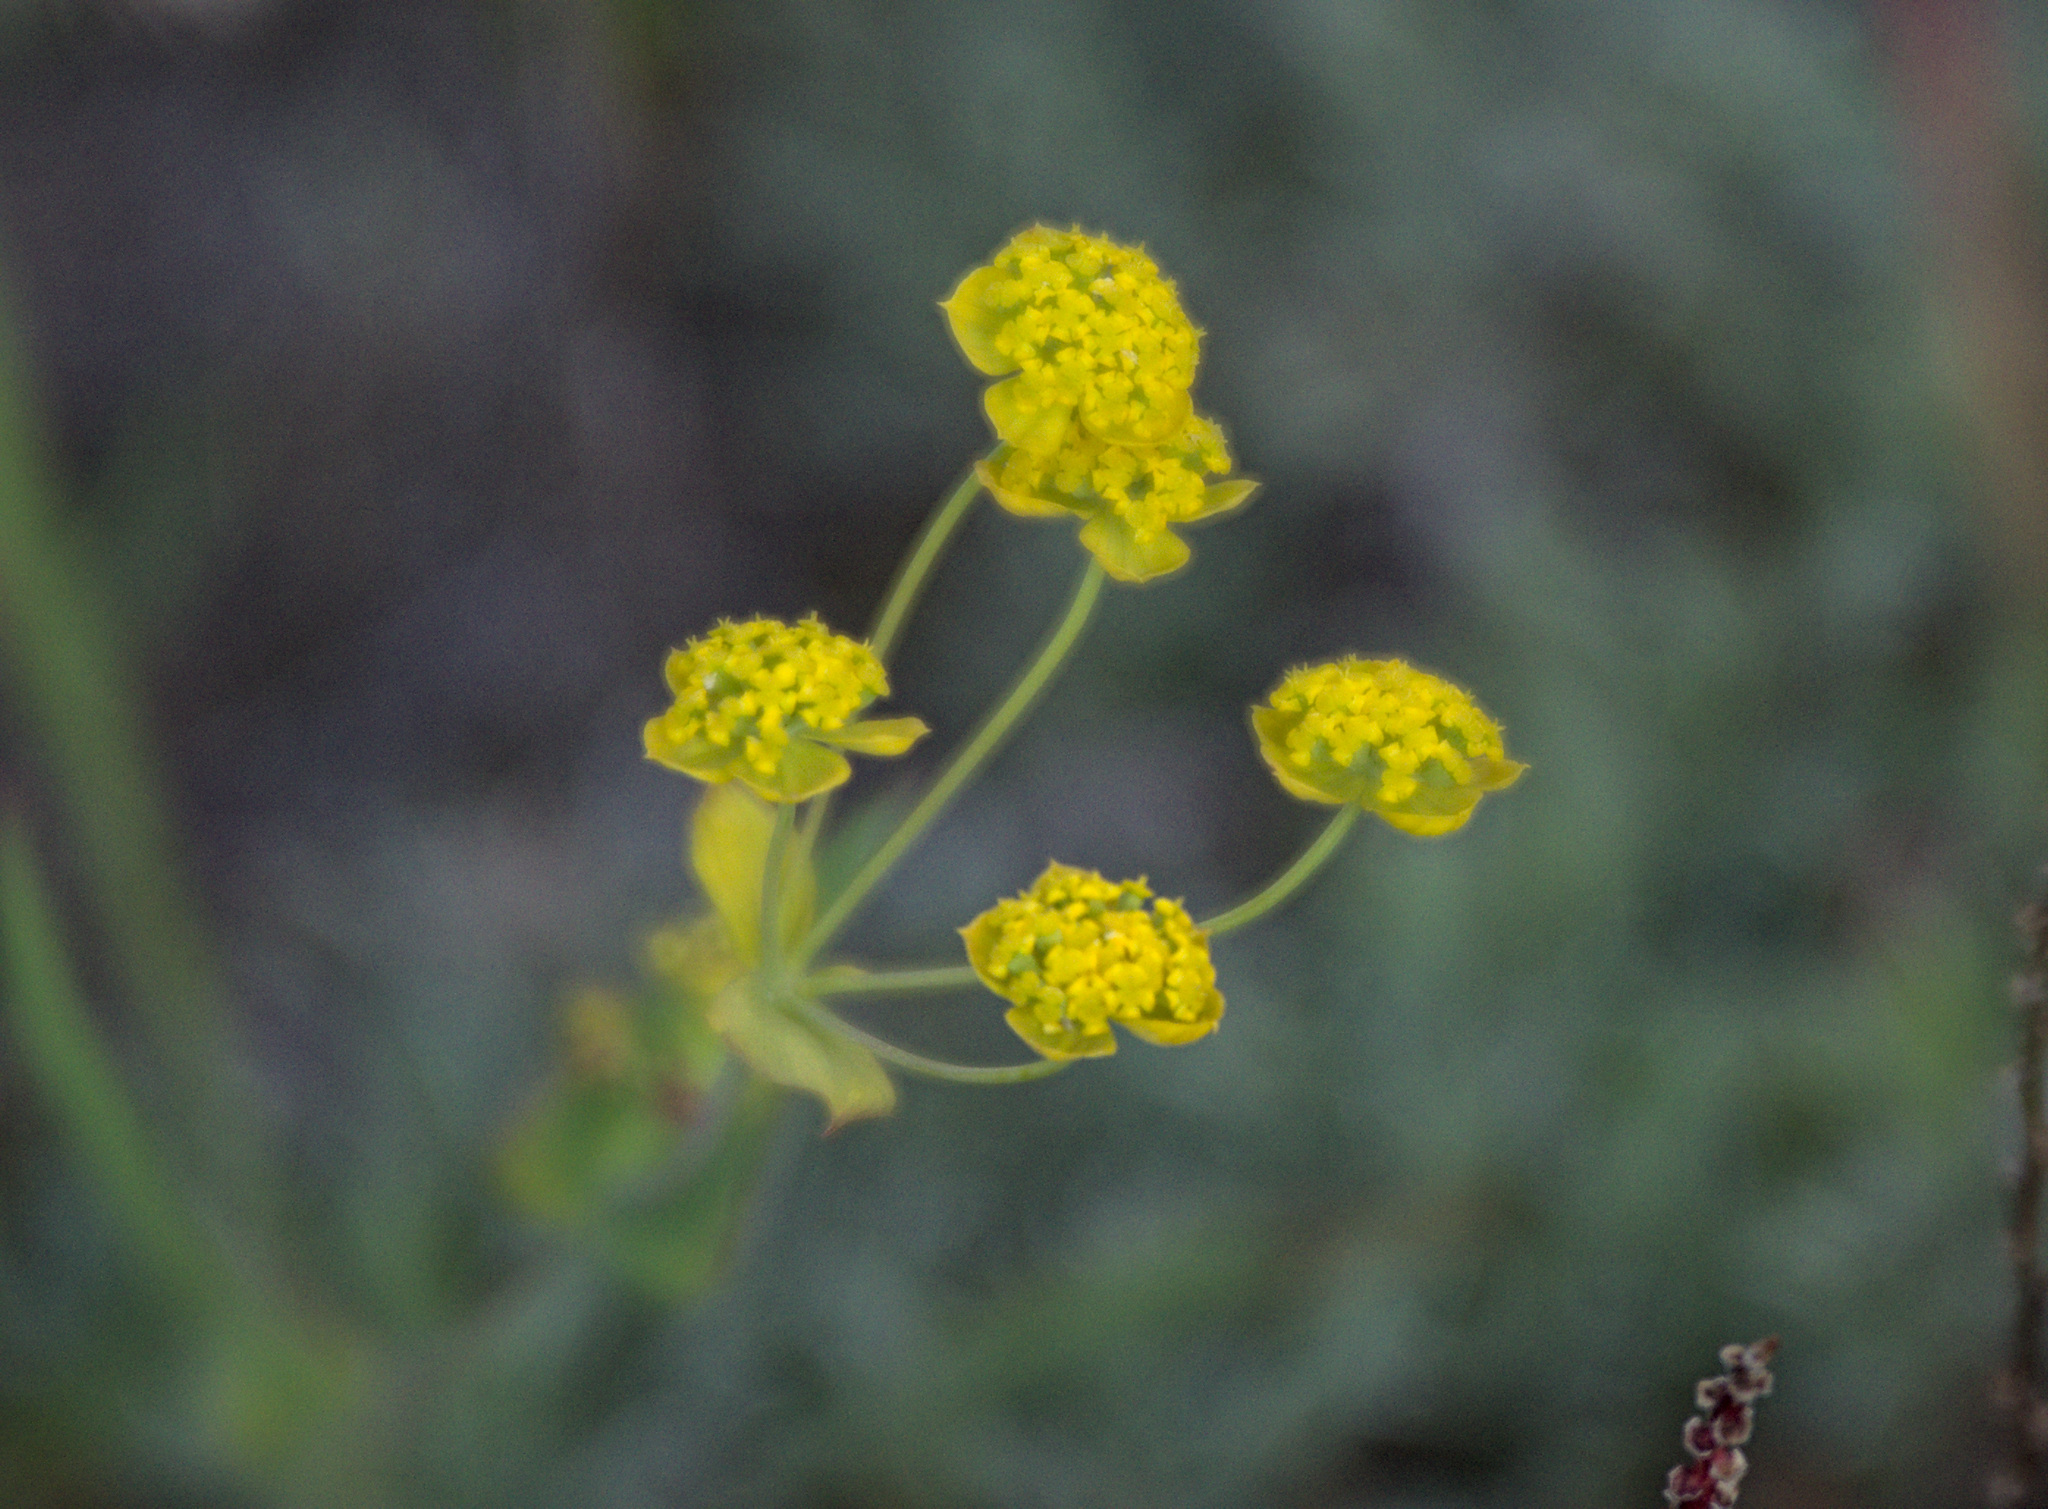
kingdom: Plantae
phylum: Tracheophyta
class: Magnoliopsida
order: Apiales
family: Apiaceae
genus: Bupleurum
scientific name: Bupleurum multinerve
